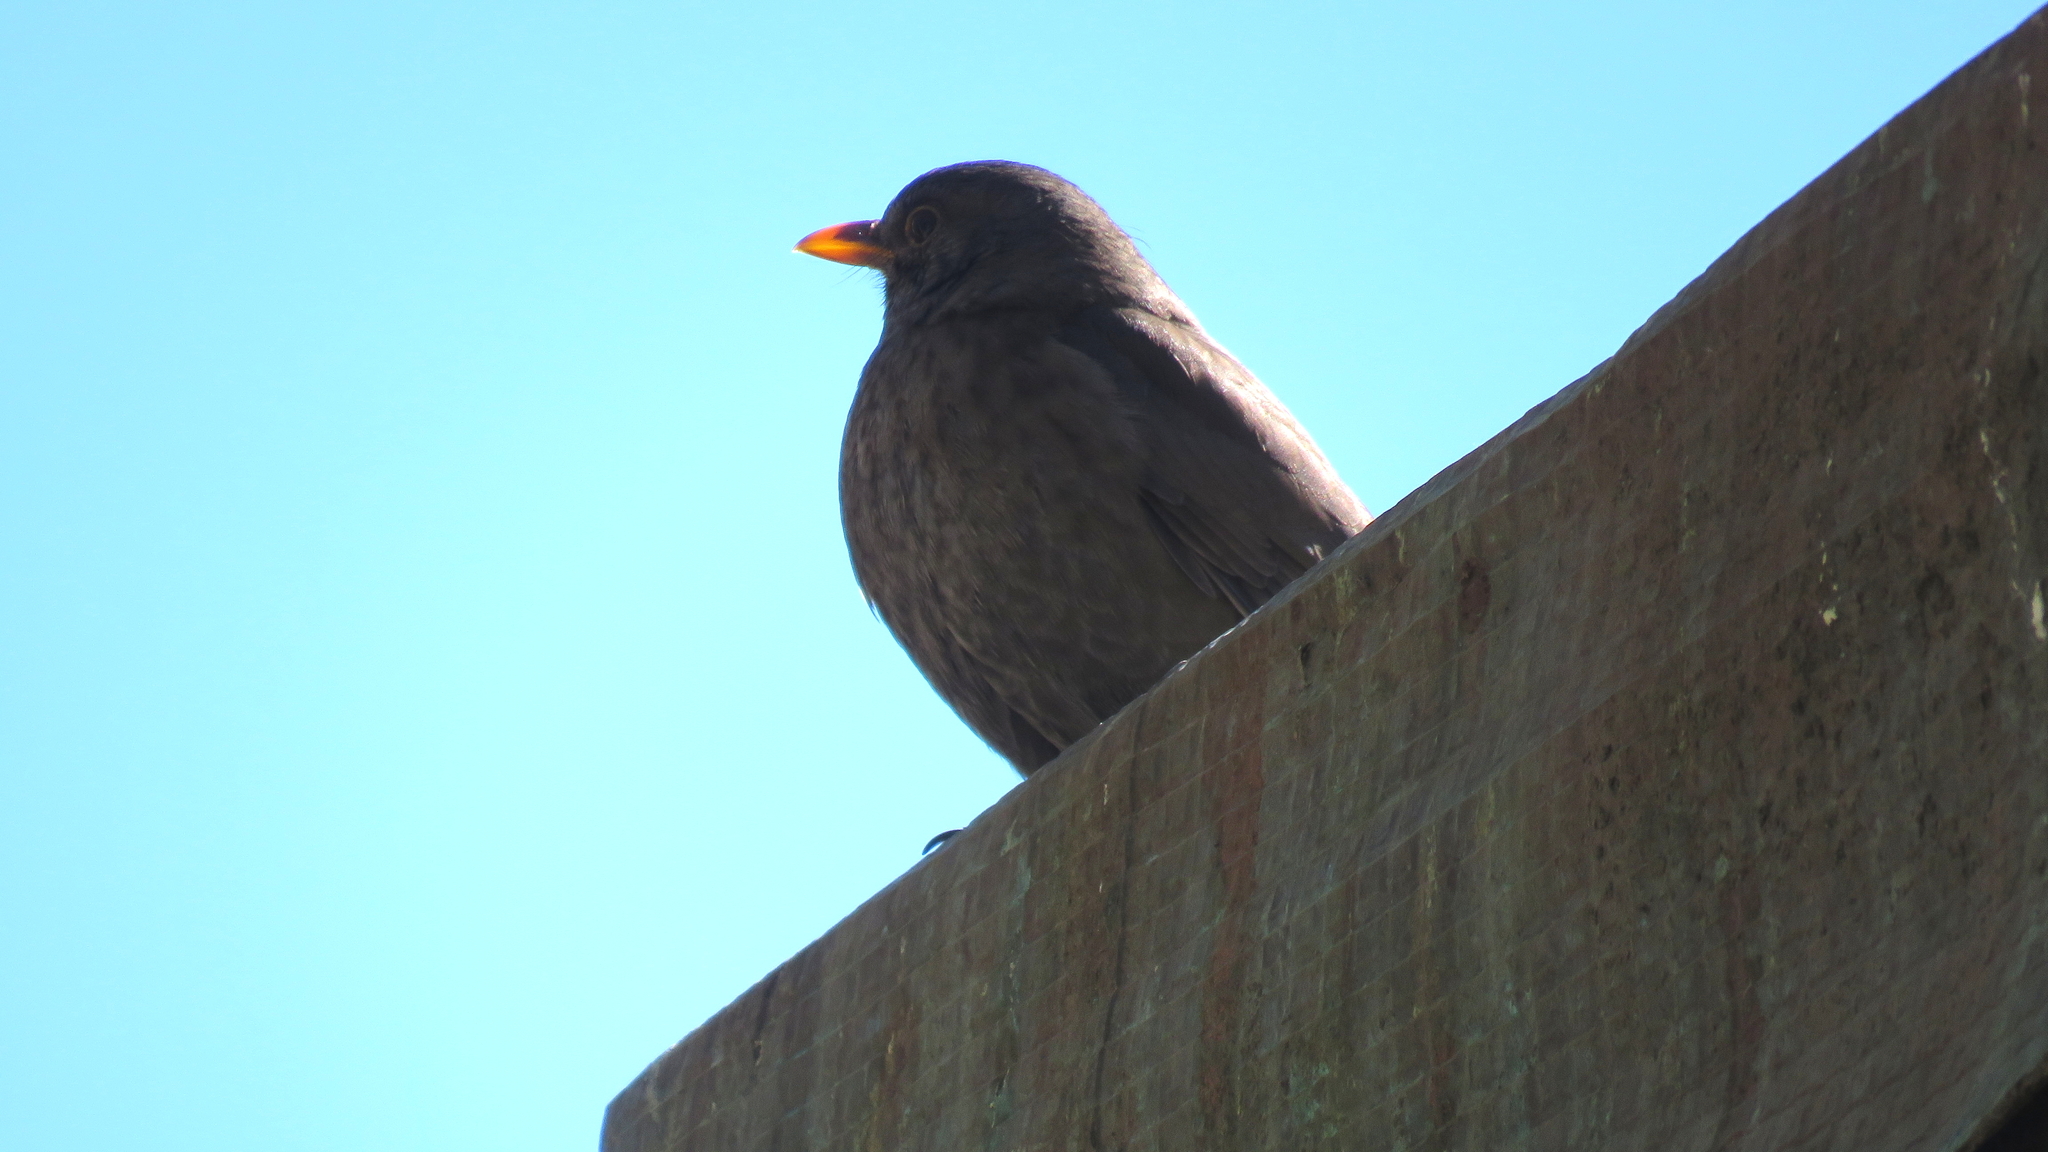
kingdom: Animalia
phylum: Chordata
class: Aves
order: Passeriformes
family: Turdidae
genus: Turdus
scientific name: Turdus merula
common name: Common blackbird
